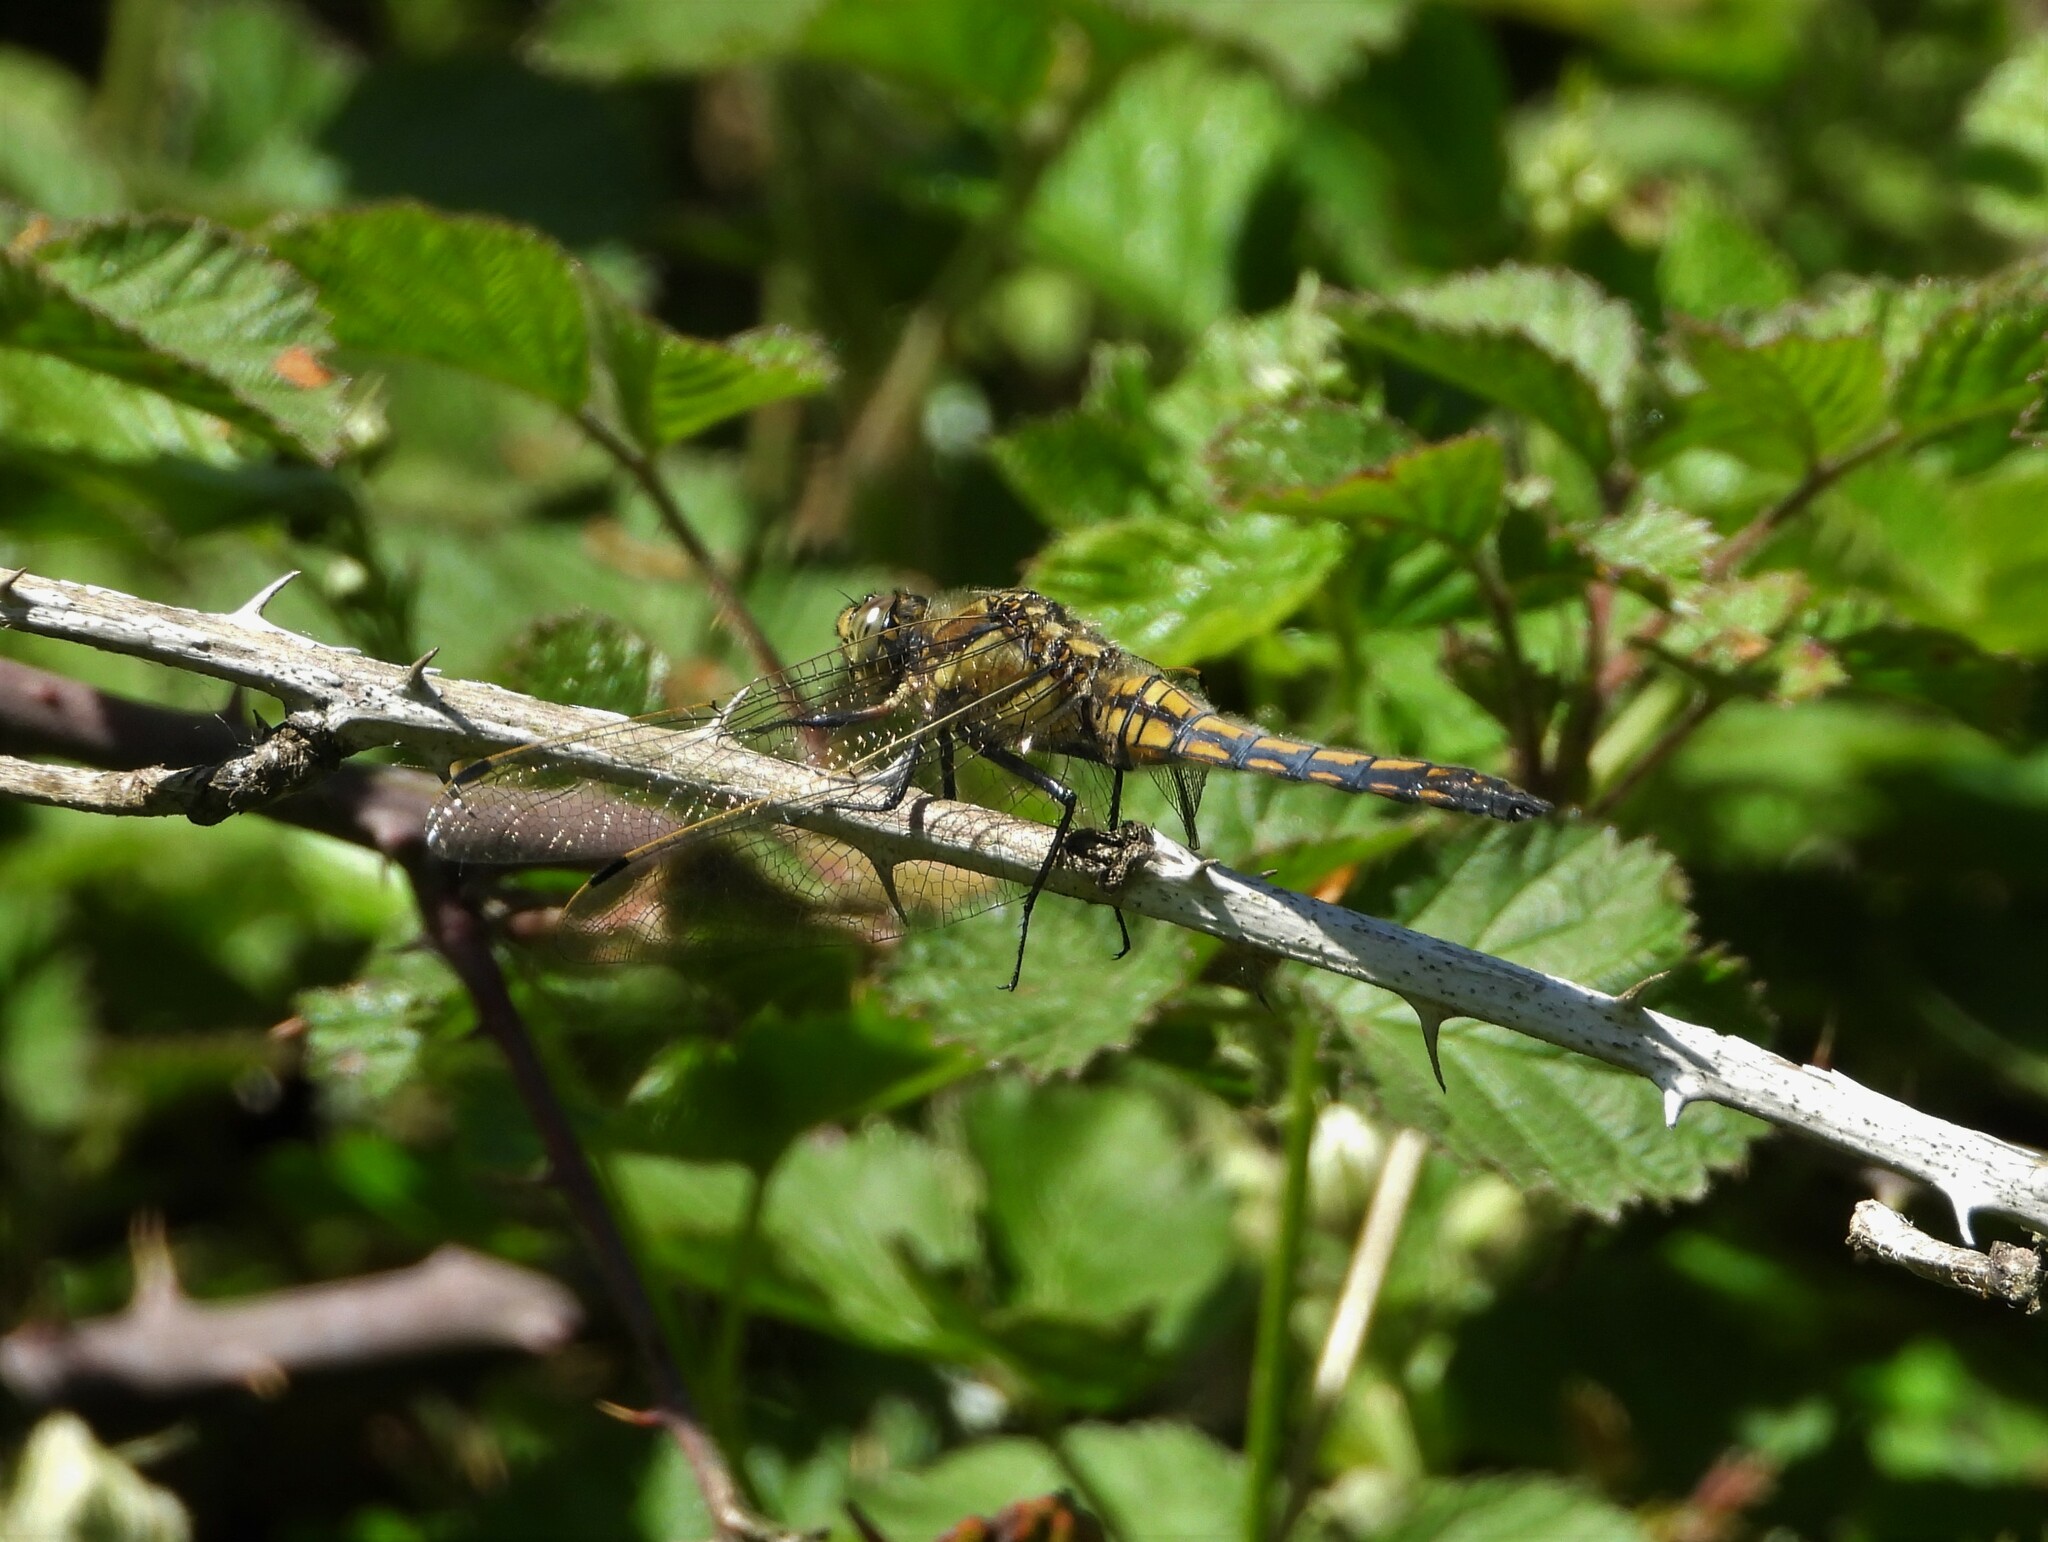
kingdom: Animalia
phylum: Arthropoda
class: Insecta
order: Odonata
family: Libellulidae
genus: Orthetrum
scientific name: Orthetrum cancellatum
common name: Black-tailed skimmer
